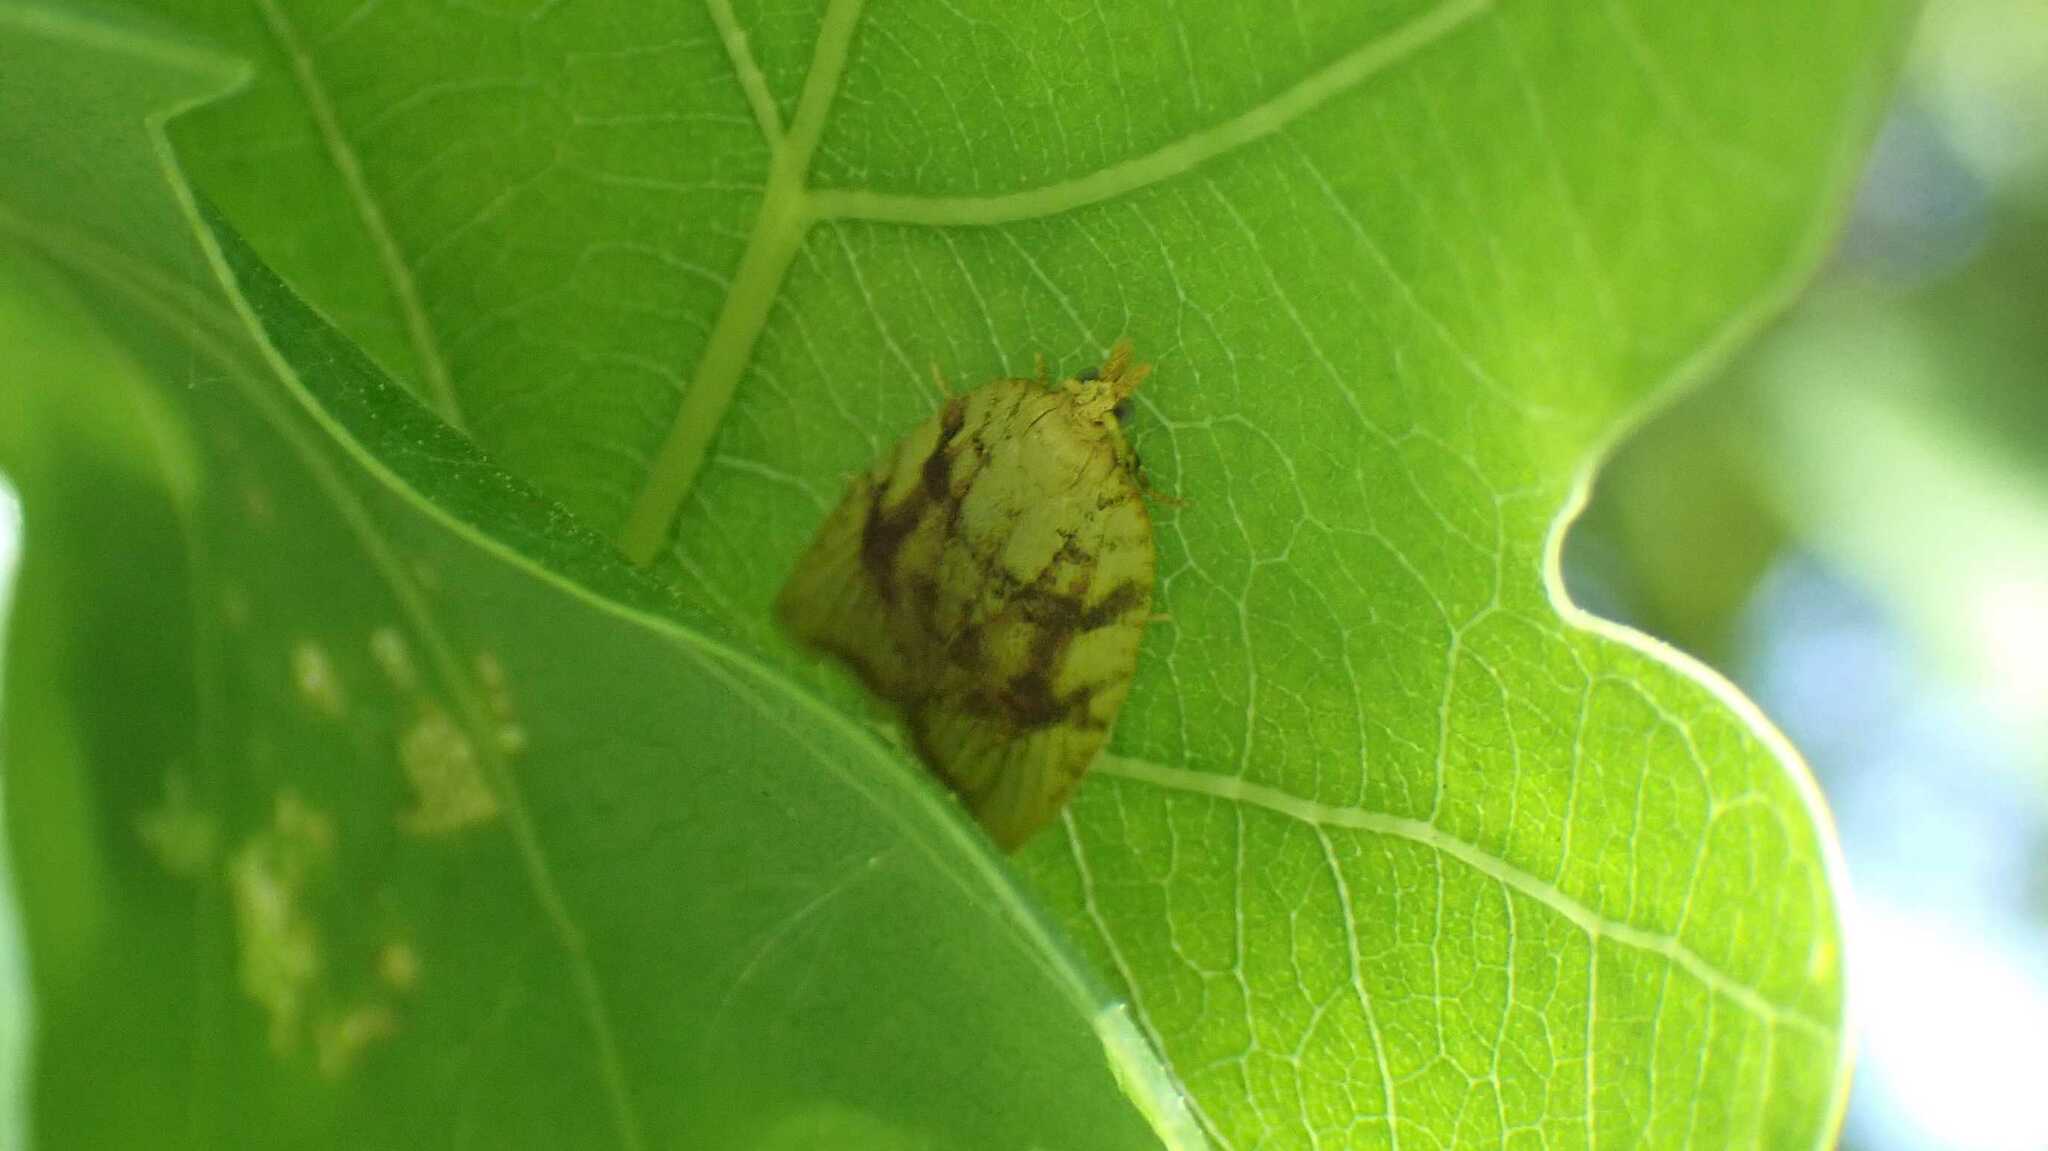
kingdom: Animalia
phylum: Arthropoda
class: Insecta
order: Lepidoptera
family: Tortricidae
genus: Aleimma
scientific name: Aleimma loeflingiana
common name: Yellow oak button
